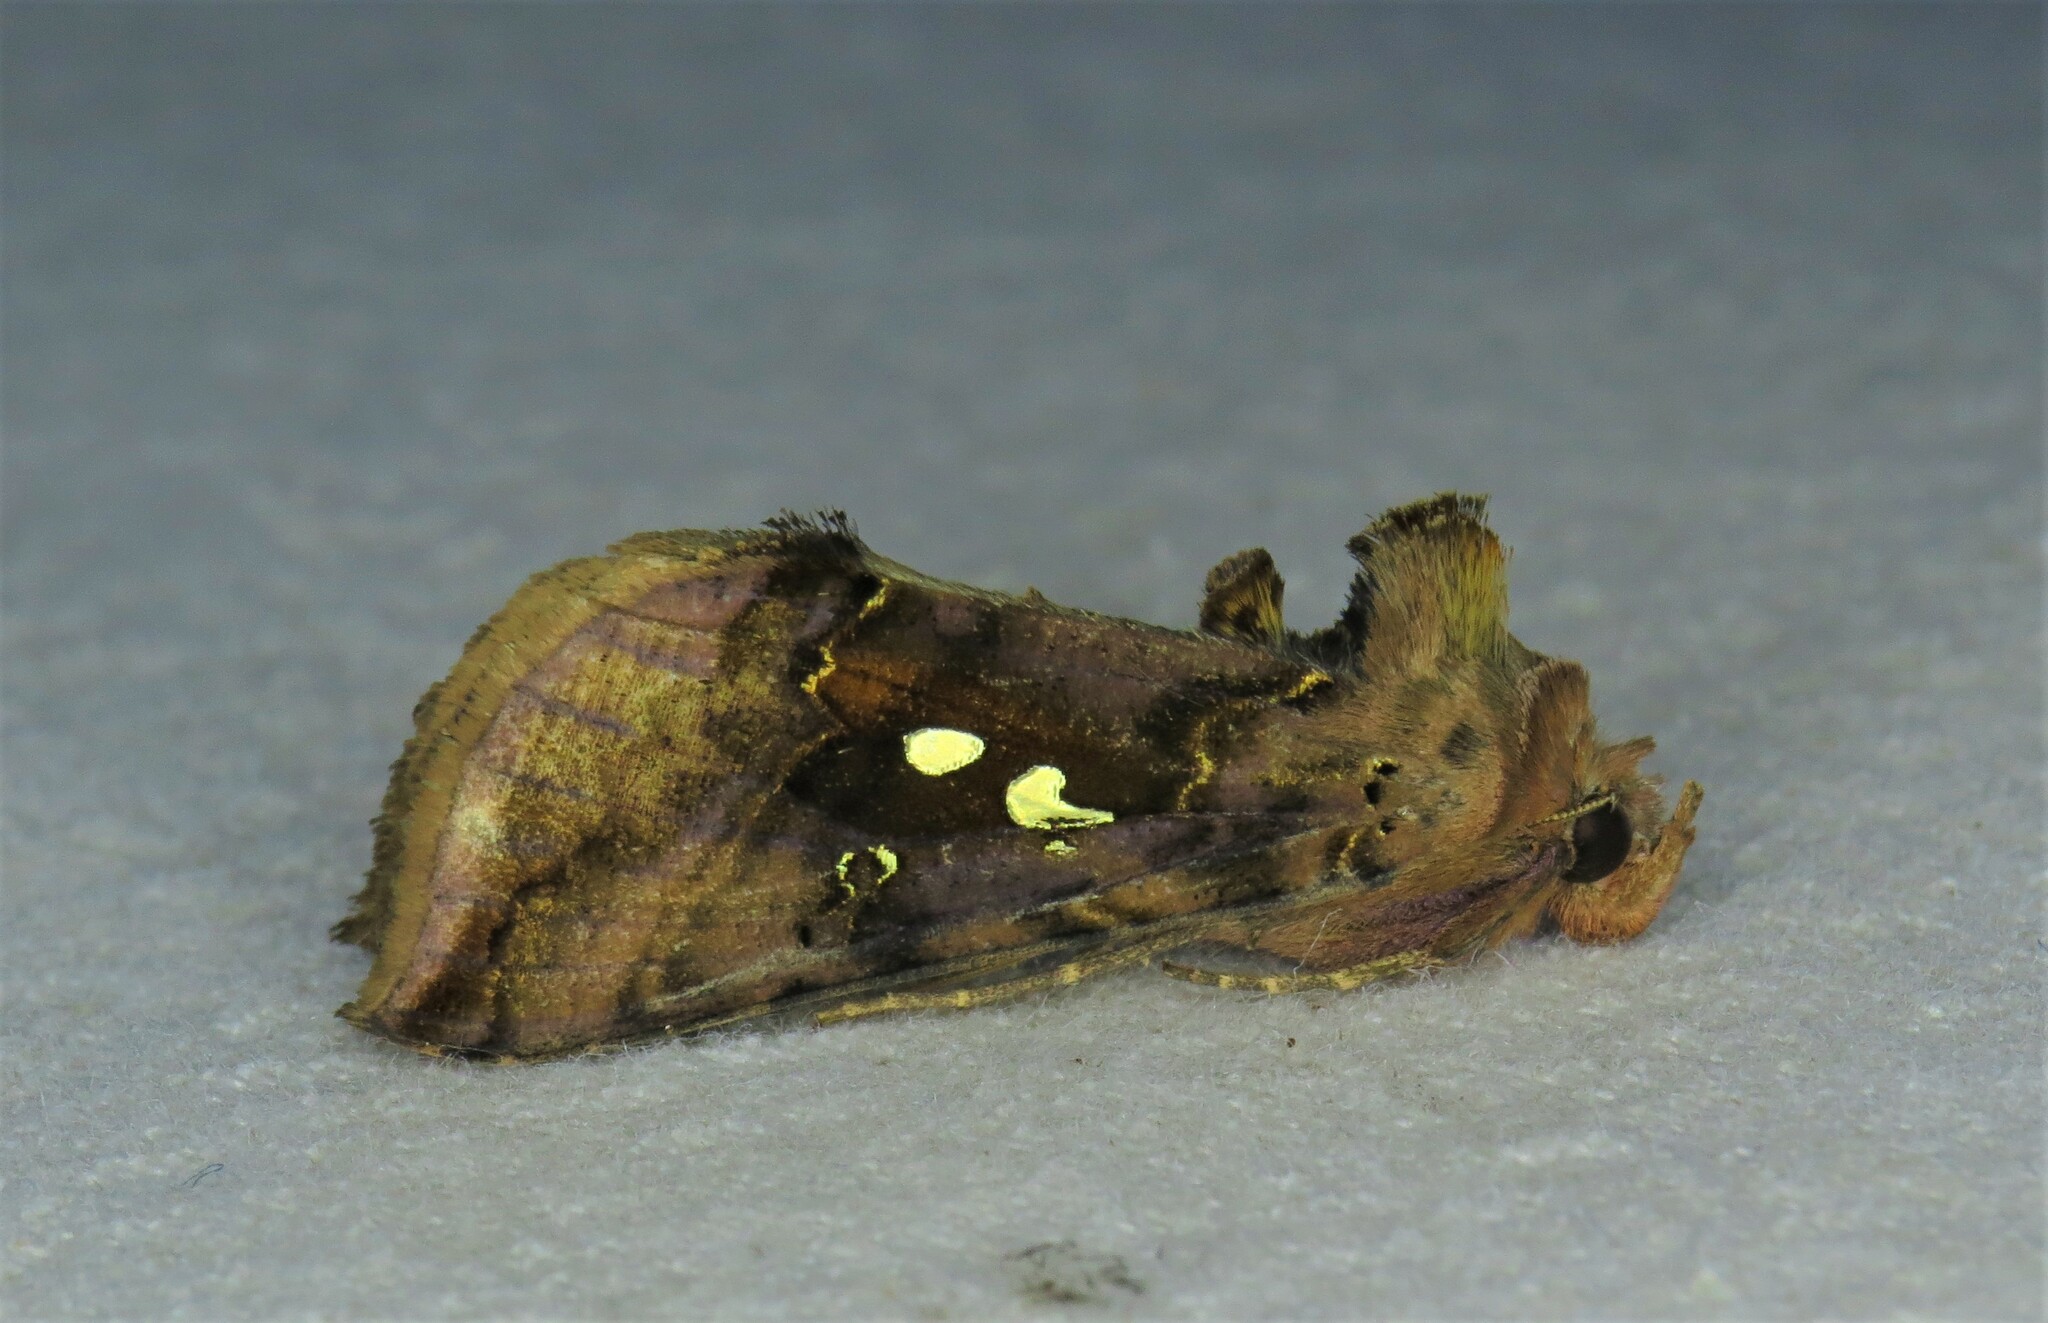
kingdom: Animalia
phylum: Arthropoda
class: Insecta
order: Lepidoptera
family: Noctuidae
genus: Autographa
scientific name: Autographa bimaculata
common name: Double-spotted spangle
